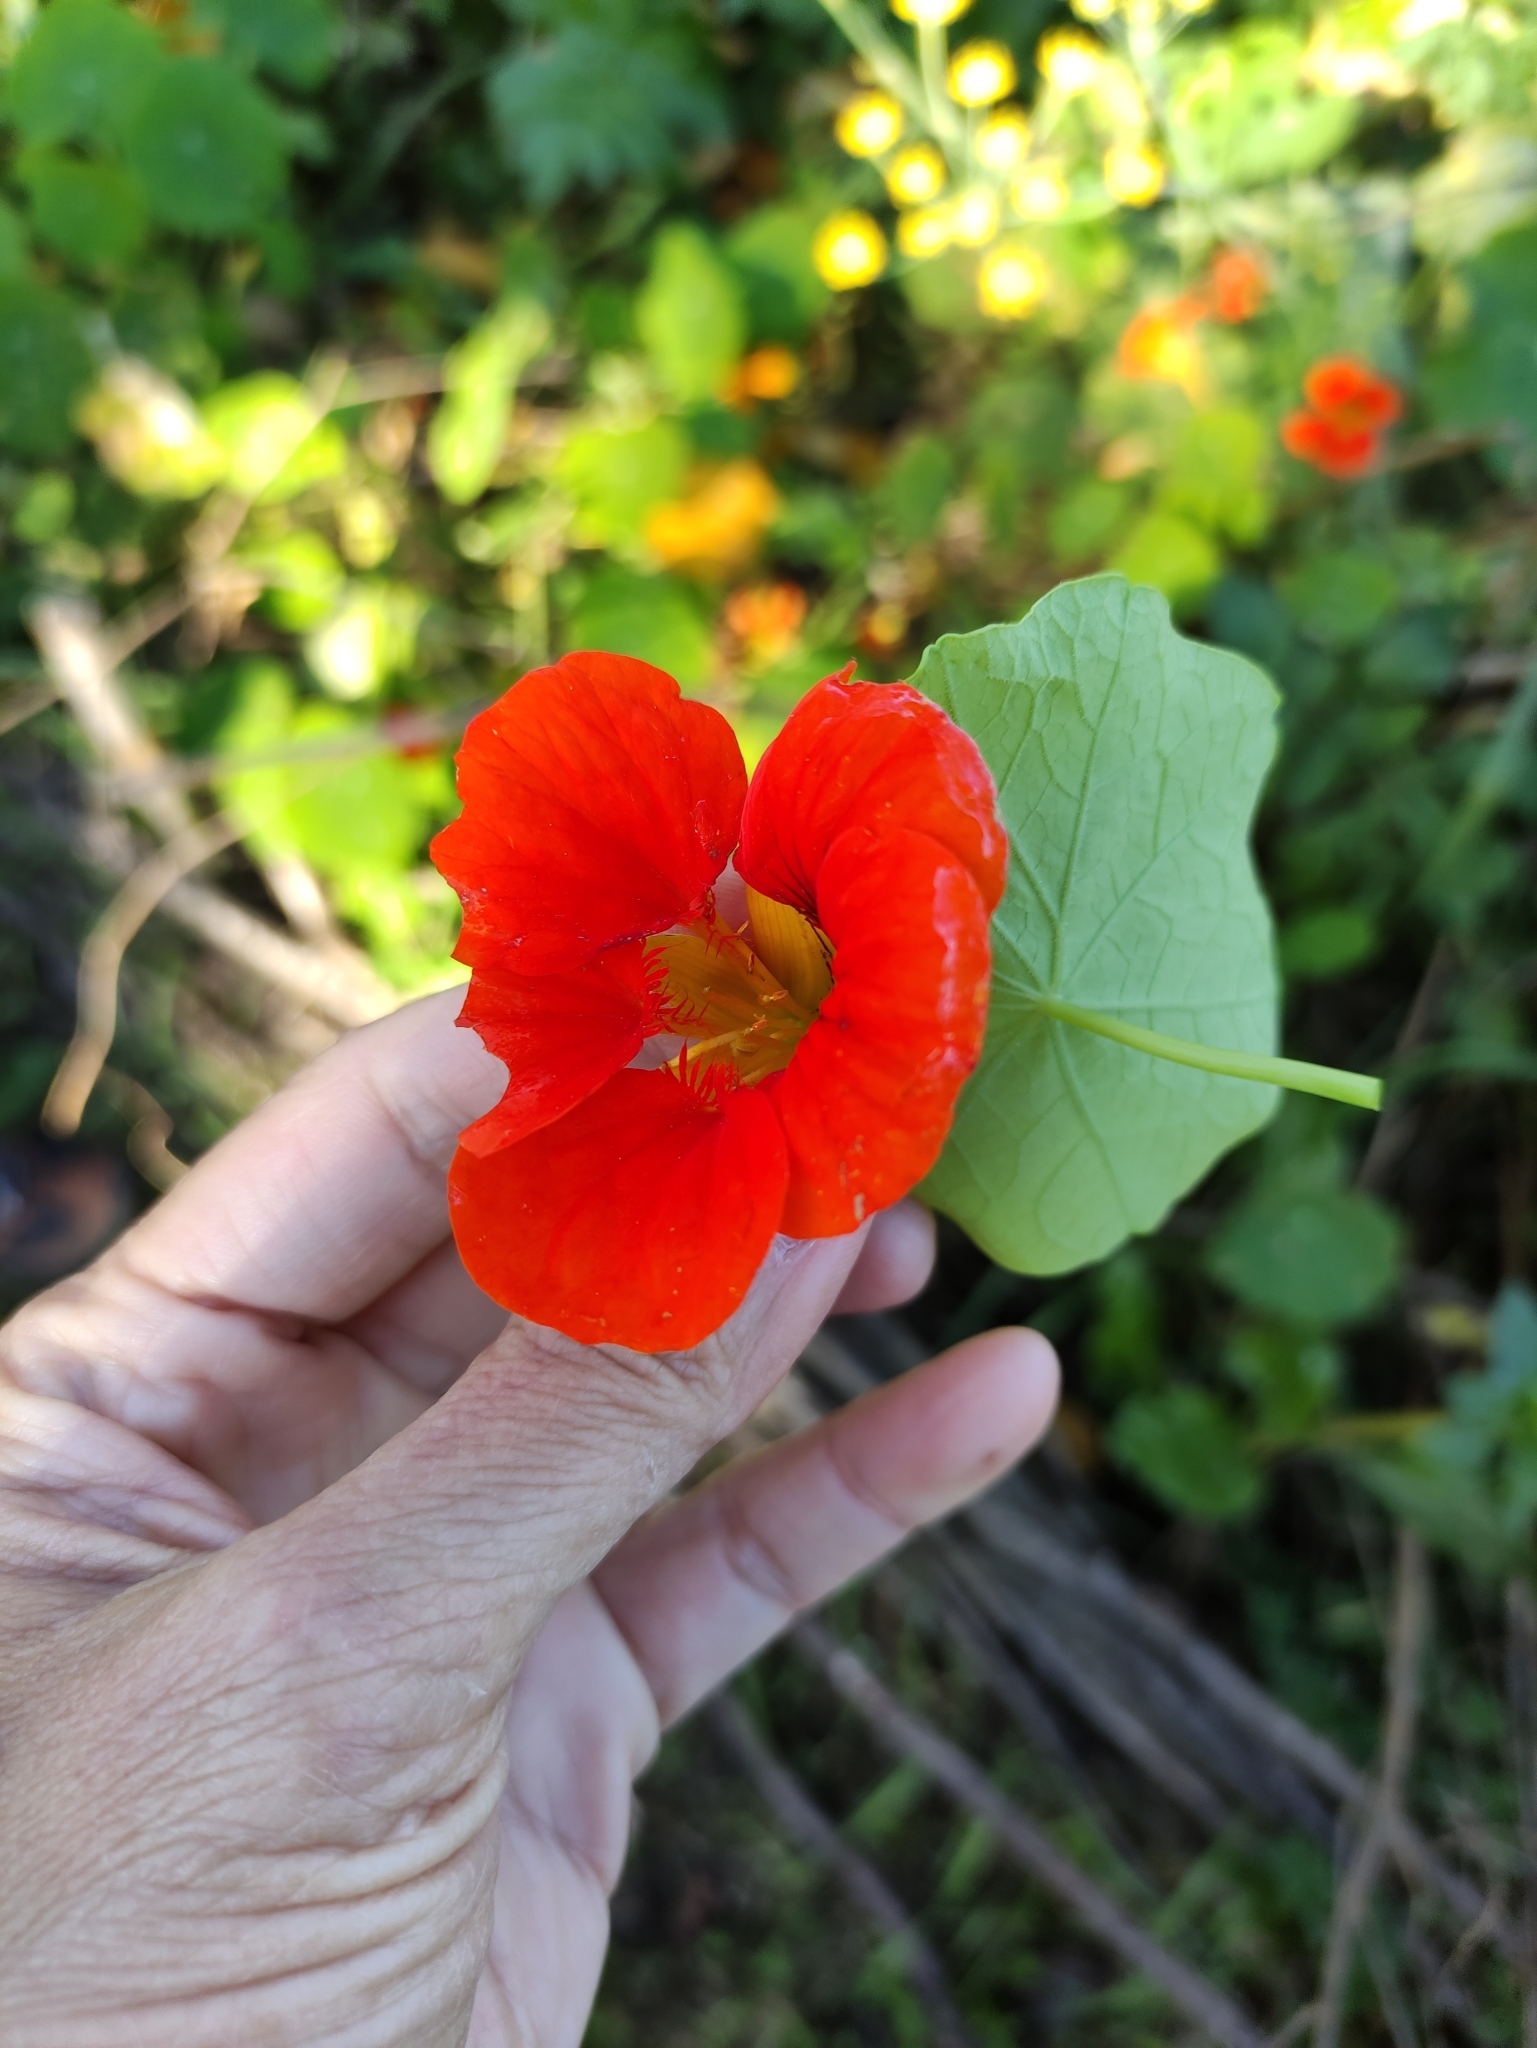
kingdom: Plantae
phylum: Tracheophyta
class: Magnoliopsida
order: Brassicales
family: Tropaeolaceae
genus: Tropaeolum
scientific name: Tropaeolum majus
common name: Nasturtium
